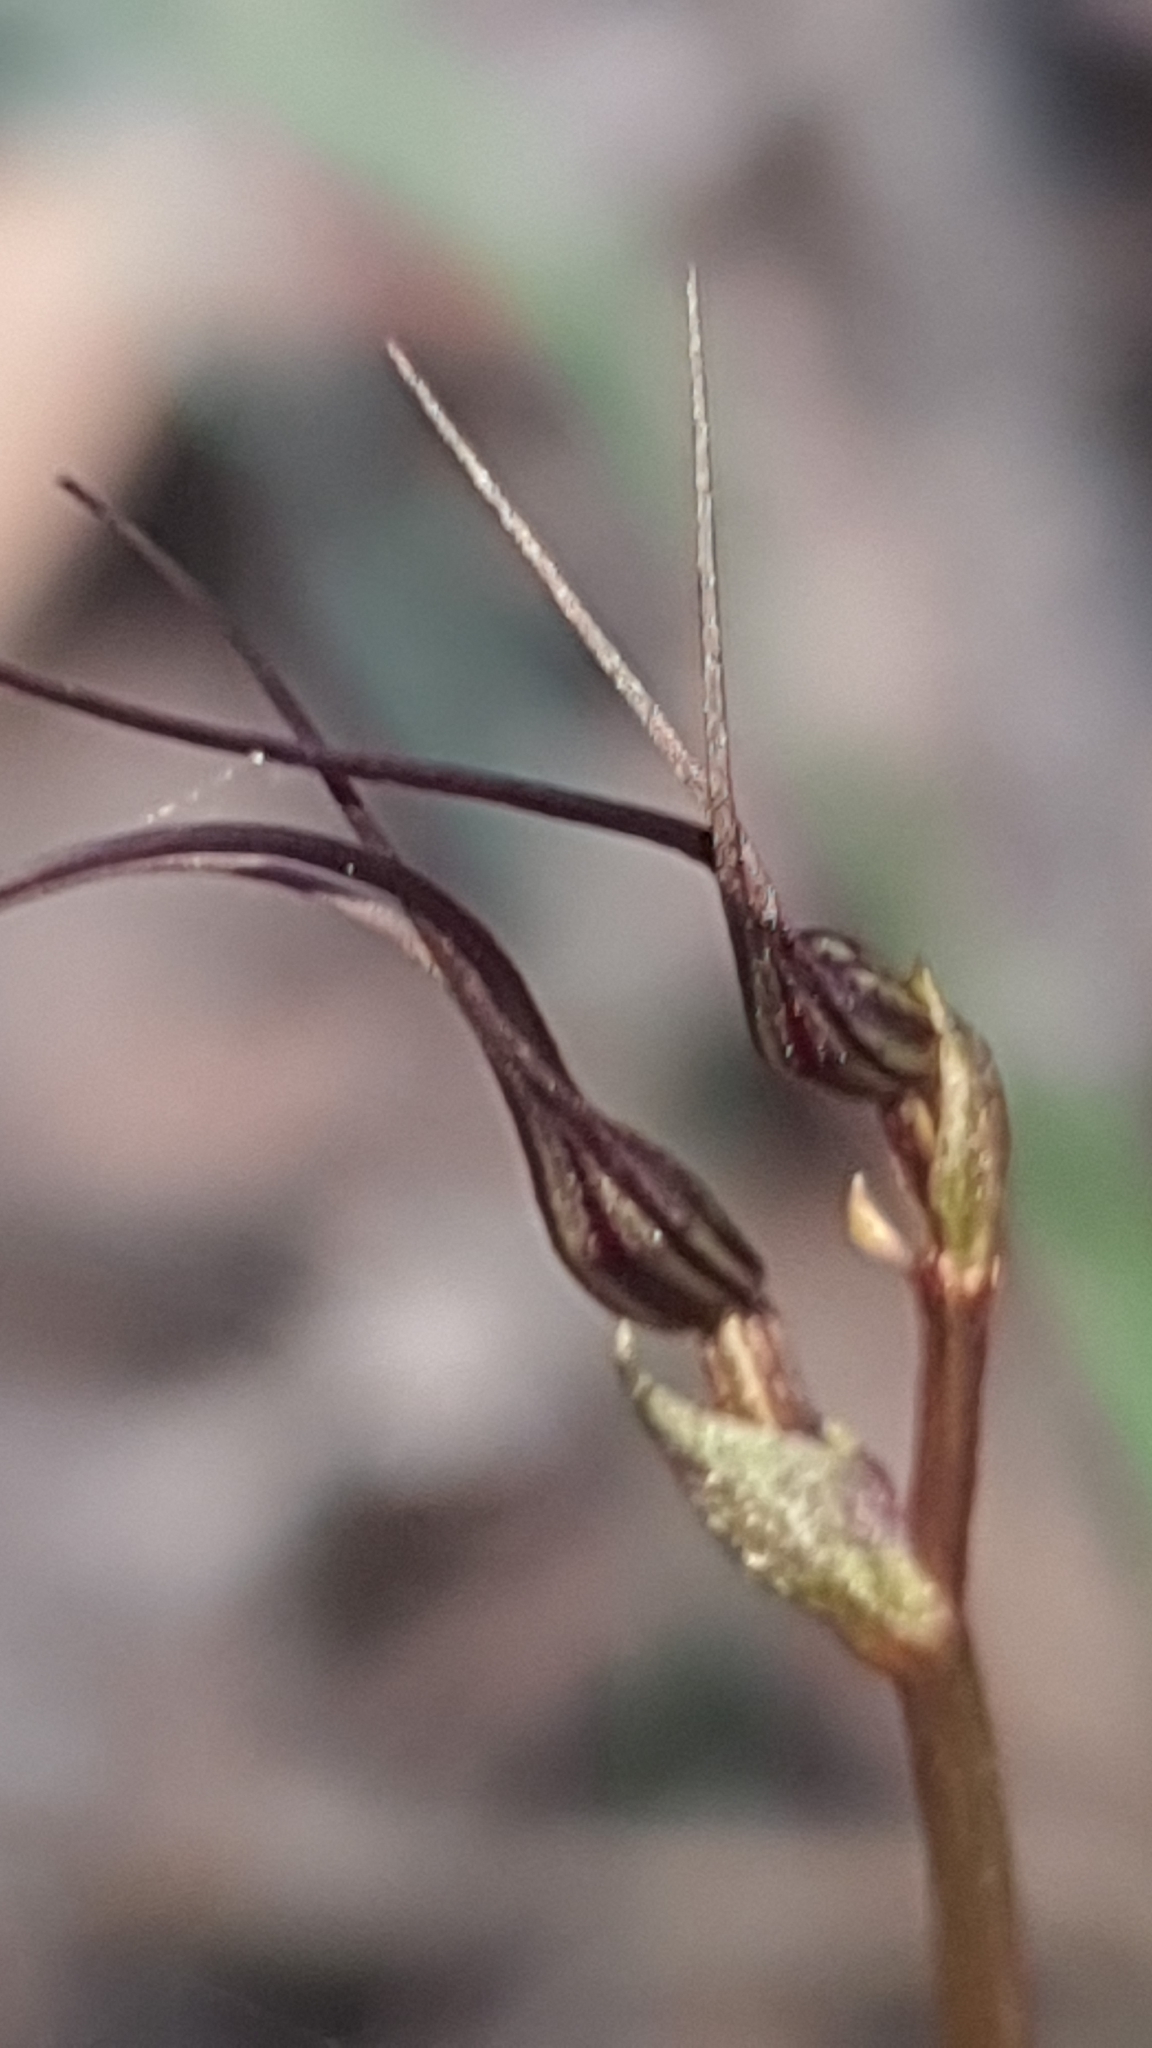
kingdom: Plantae
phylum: Tracheophyta
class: Liliopsida
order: Asparagales
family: Orchidaceae
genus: Acianthus
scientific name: Acianthus caudatus
